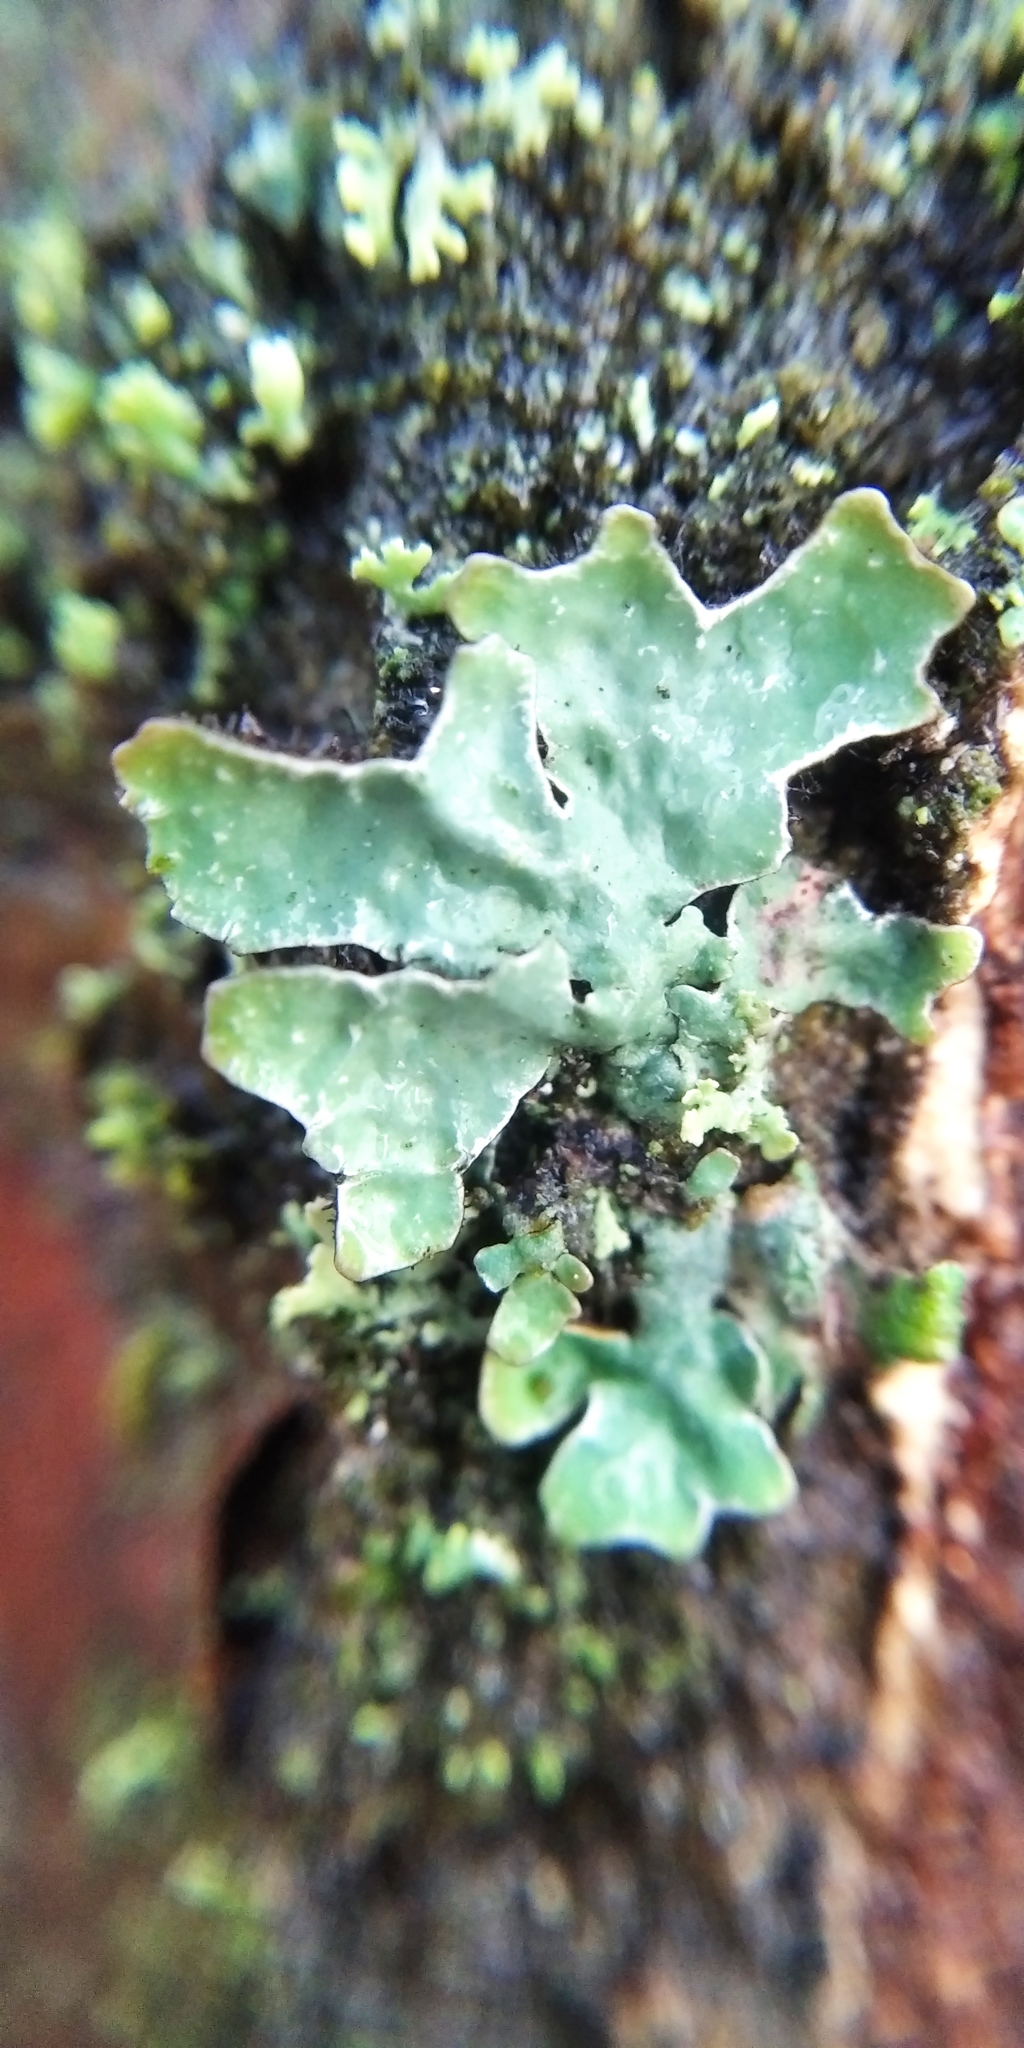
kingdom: Fungi
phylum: Ascomycota
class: Lecanoromycetes
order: Lecanorales
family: Parmeliaceae
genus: Parmelia
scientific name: Parmelia sulcata
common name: Netted shield lichen
